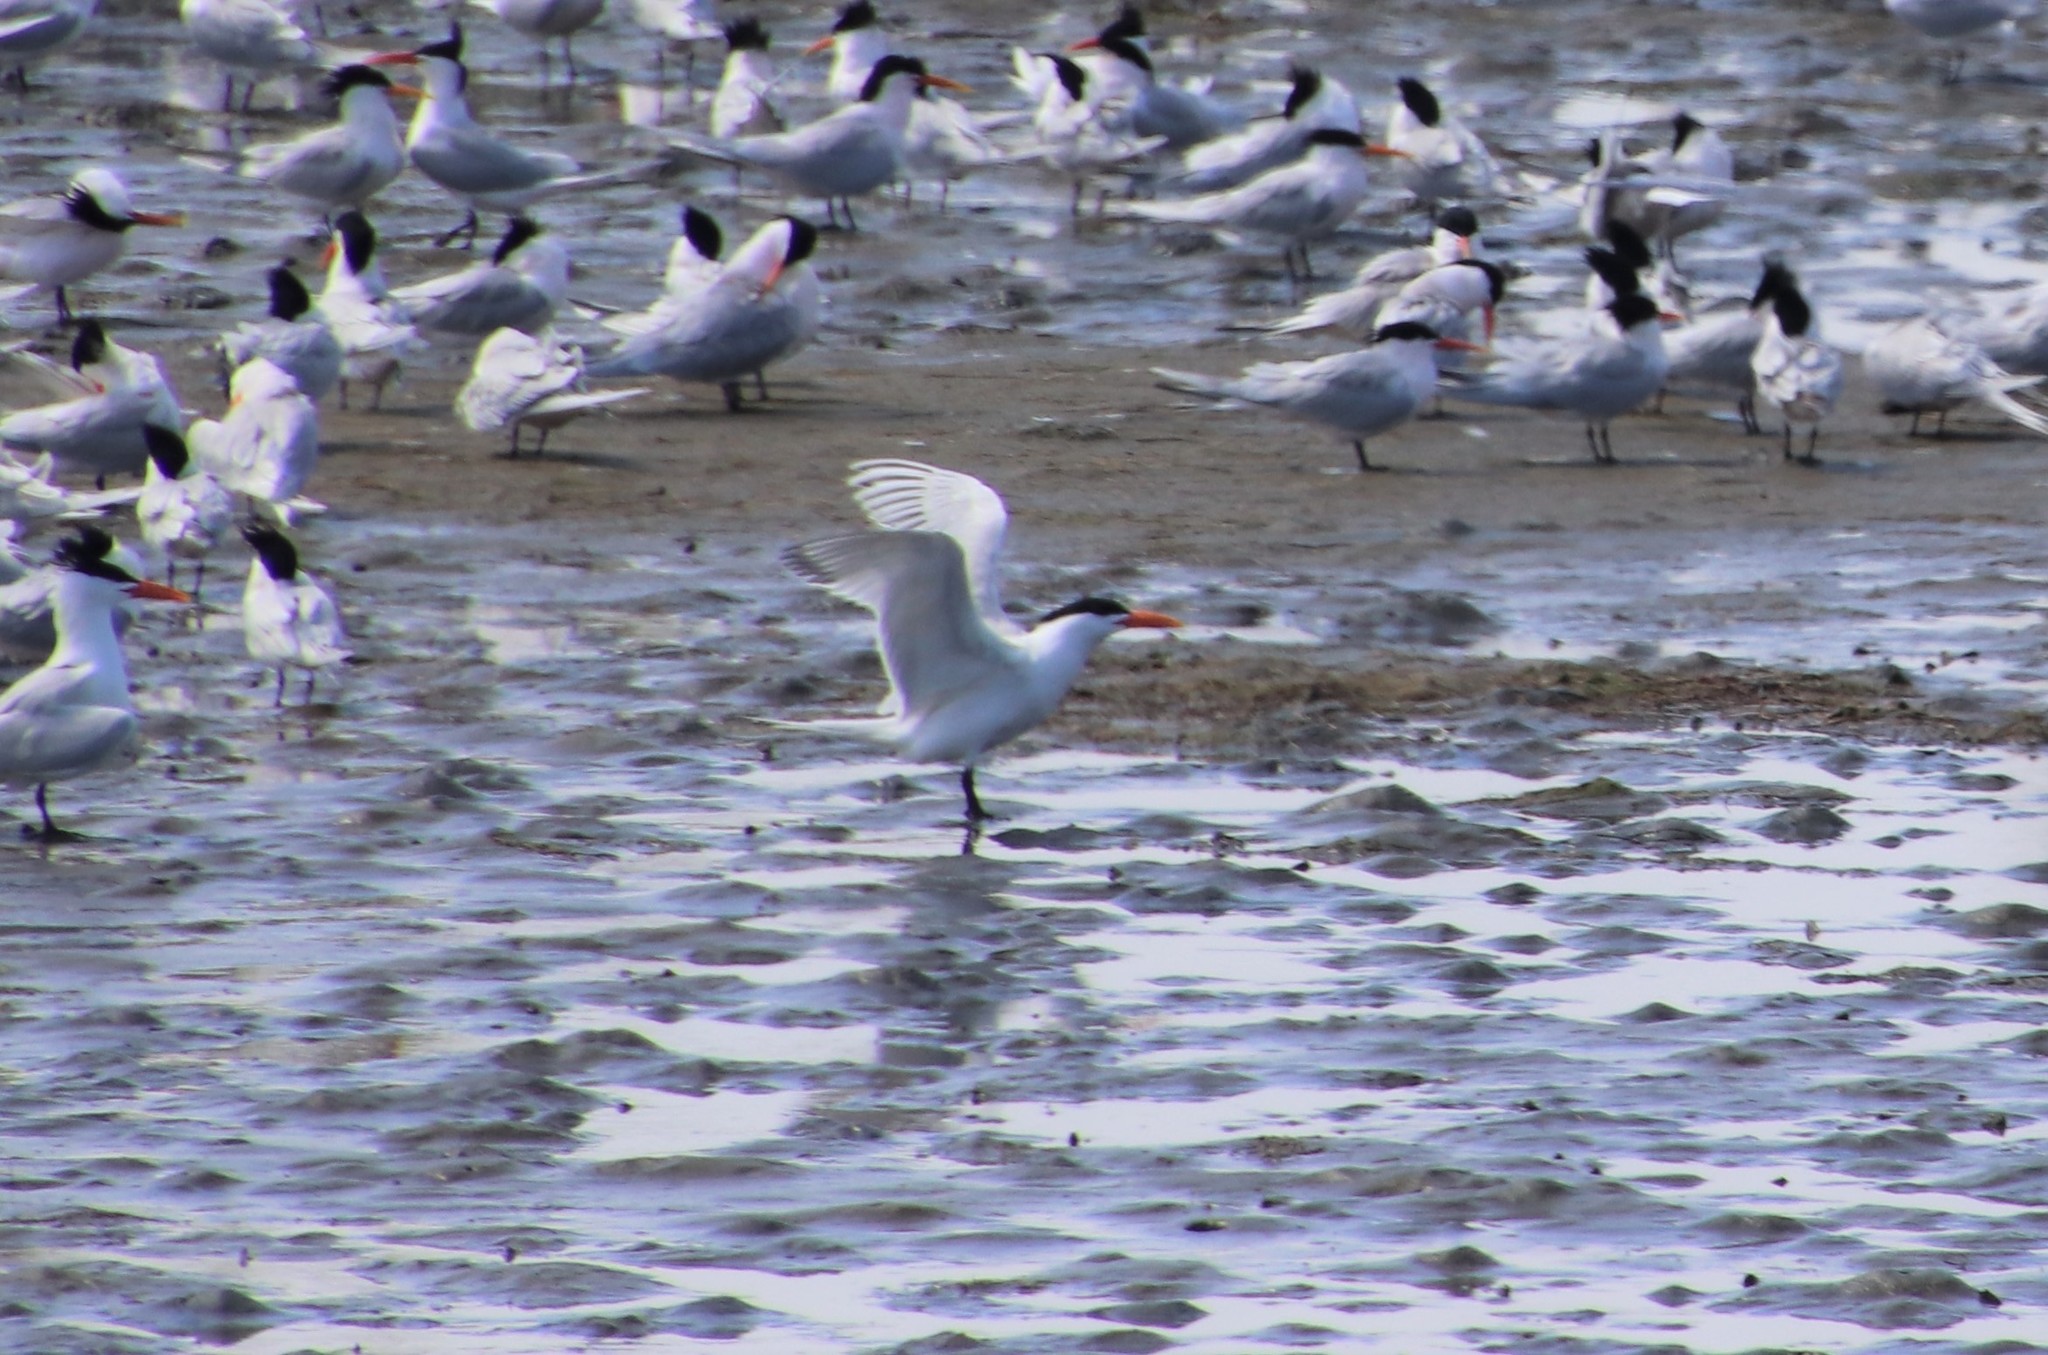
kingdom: Animalia
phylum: Chordata
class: Aves
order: Charadriiformes
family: Laridae
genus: Thalasseus
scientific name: Thalasseus maximus
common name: Royal tern
